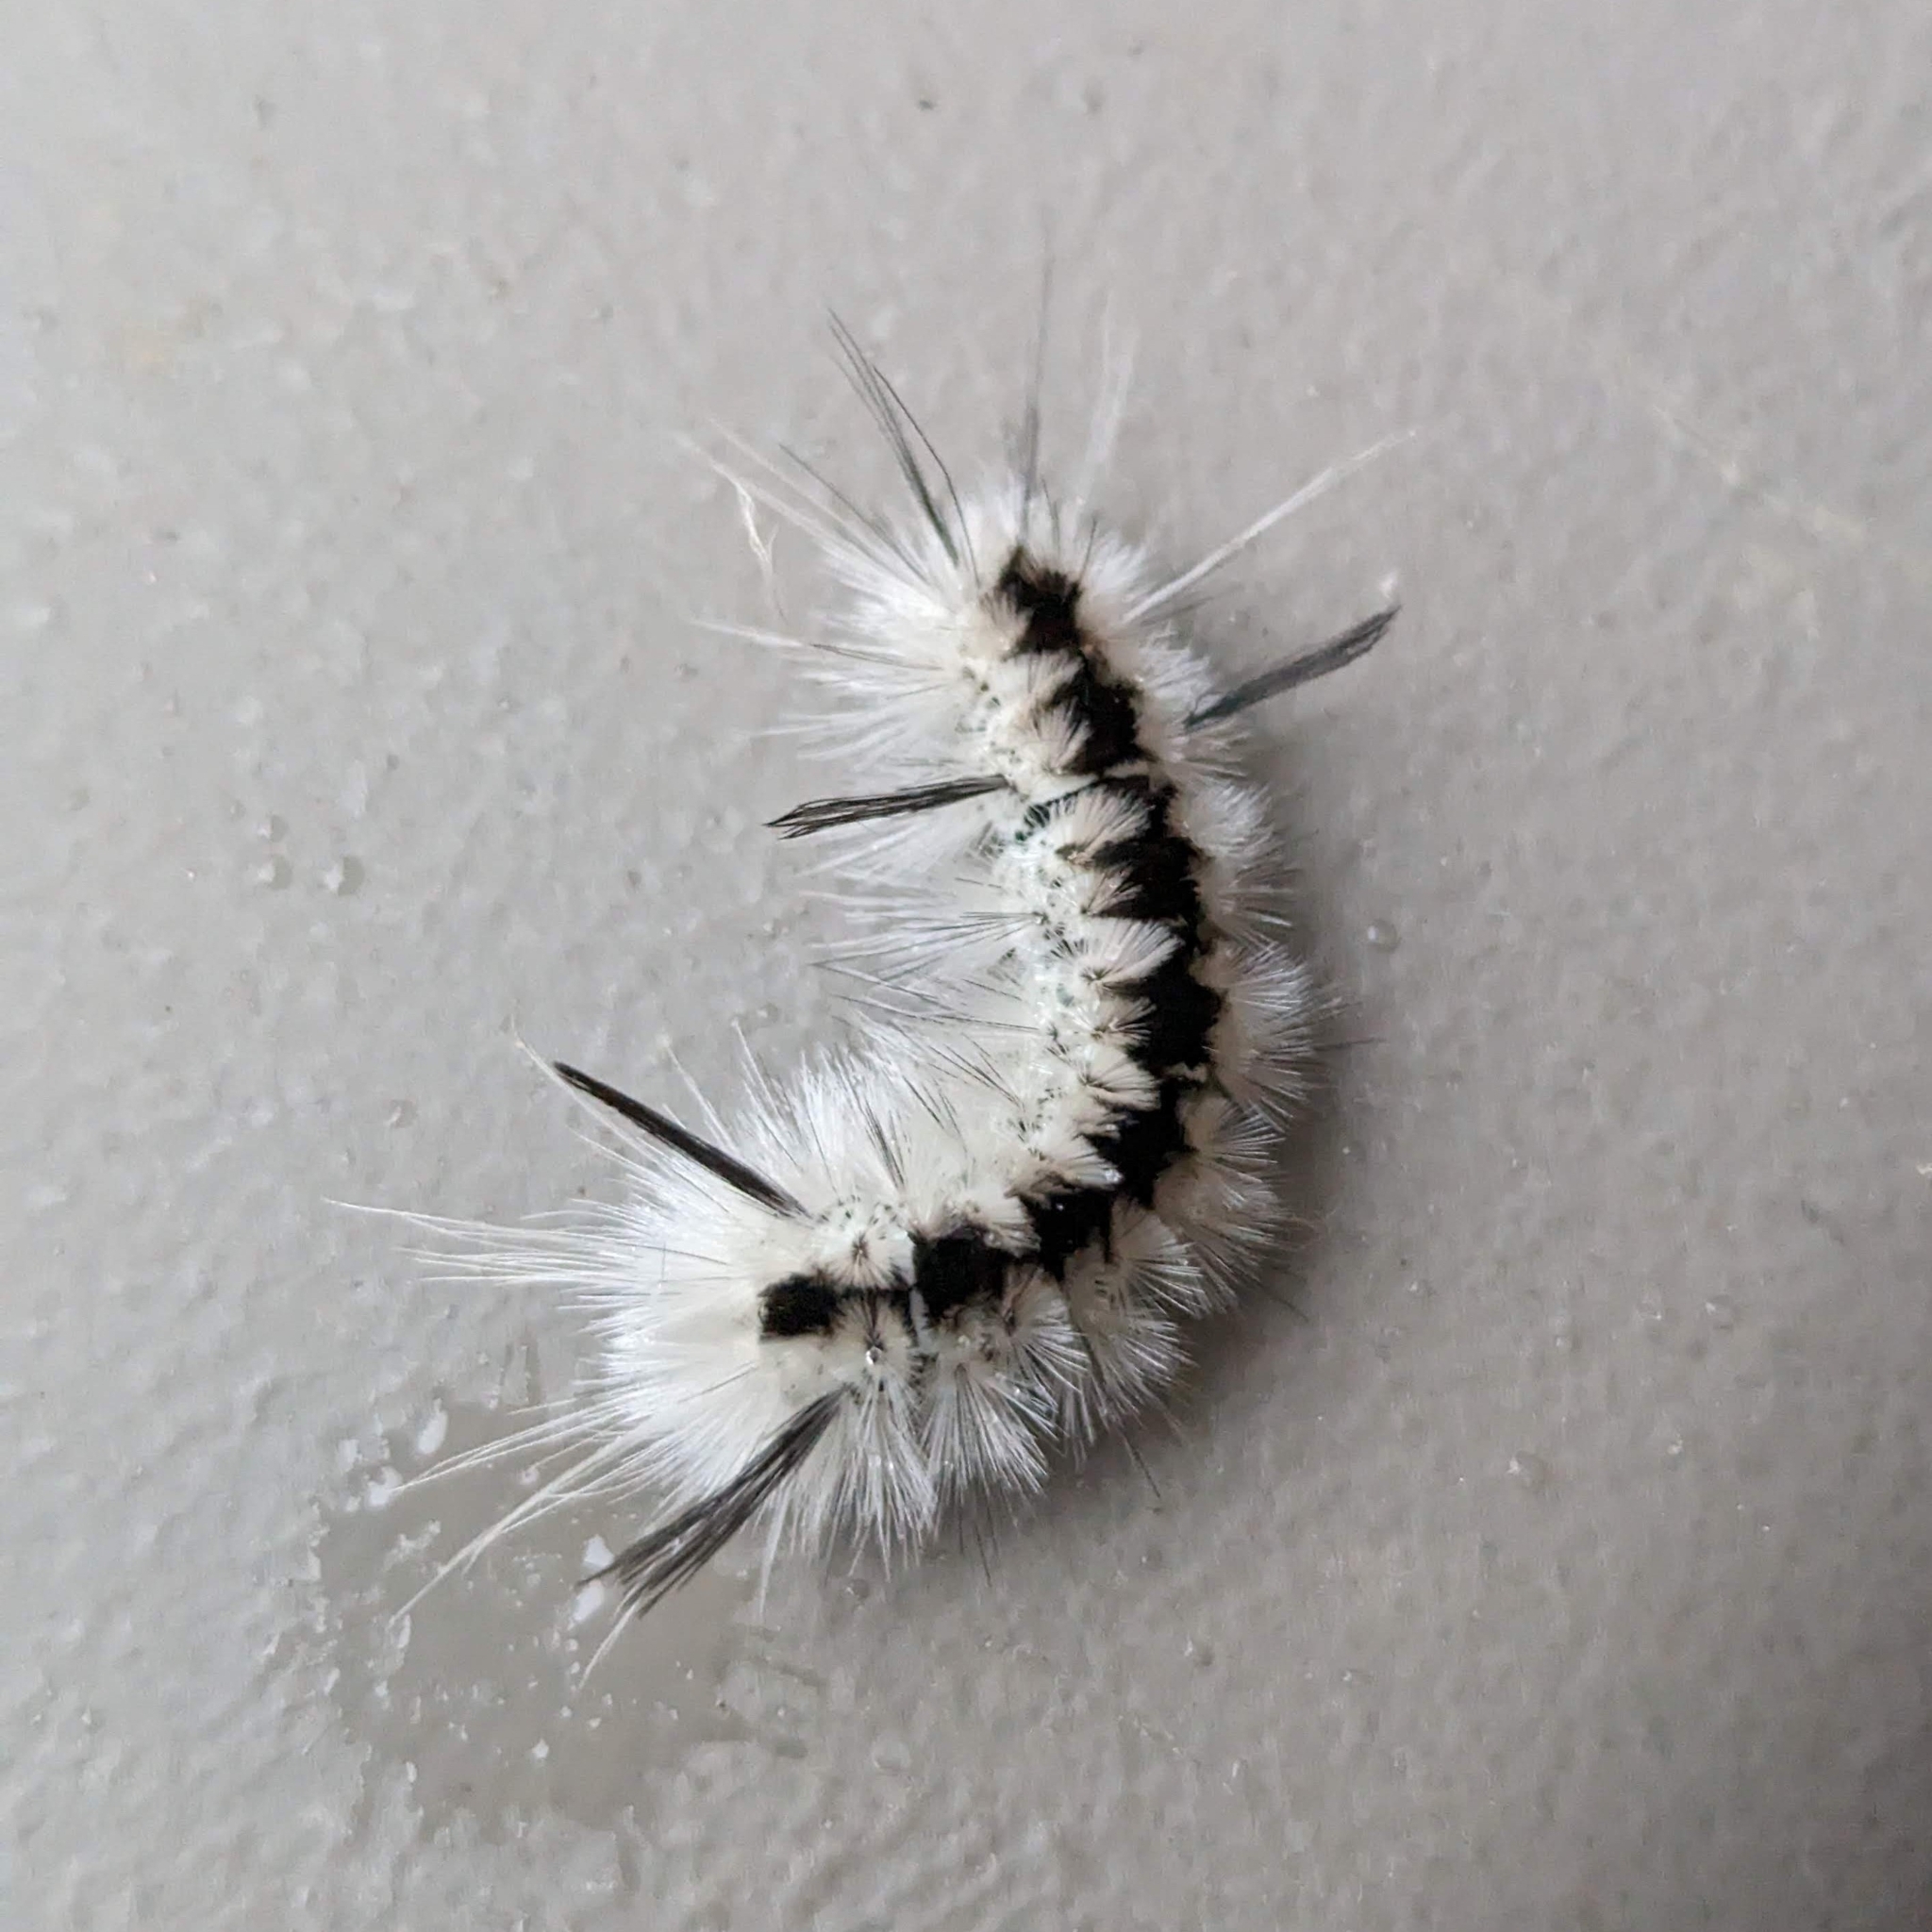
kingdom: Animalia
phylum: Arthropoda
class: Insecta
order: Lepidoptera
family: Erebidae
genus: Lophocampa
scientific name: Lophocampa caryae
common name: Hickory tussock moth
